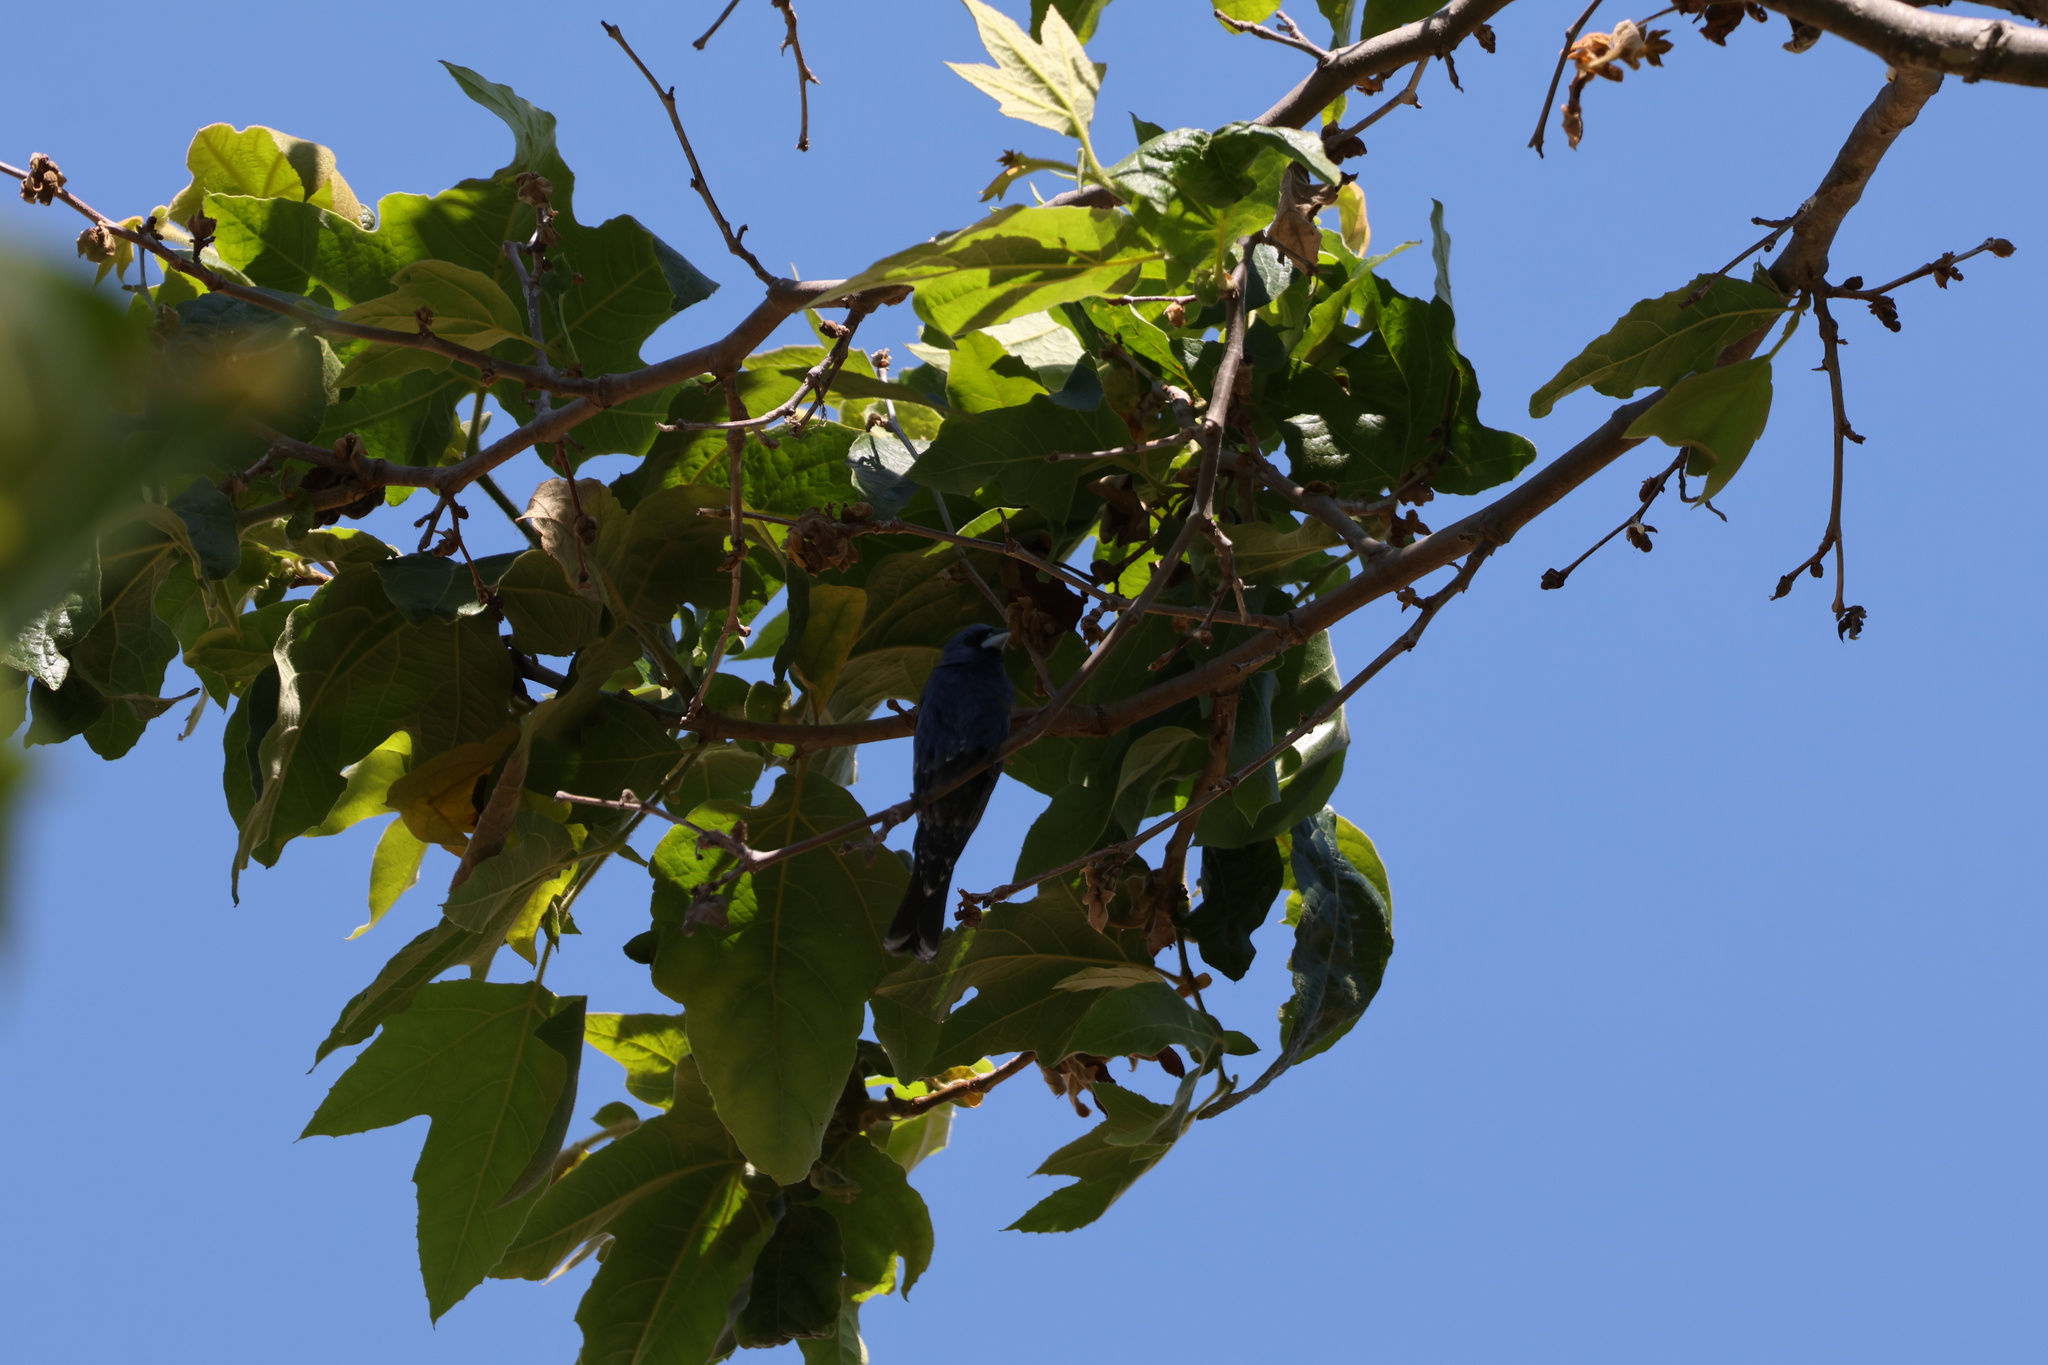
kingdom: Animalia
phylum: Chordata
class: Aves
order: Passeriformes
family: Cardinalidae
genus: Passerina
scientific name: Passerina caerulea
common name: Blue grosbeak
